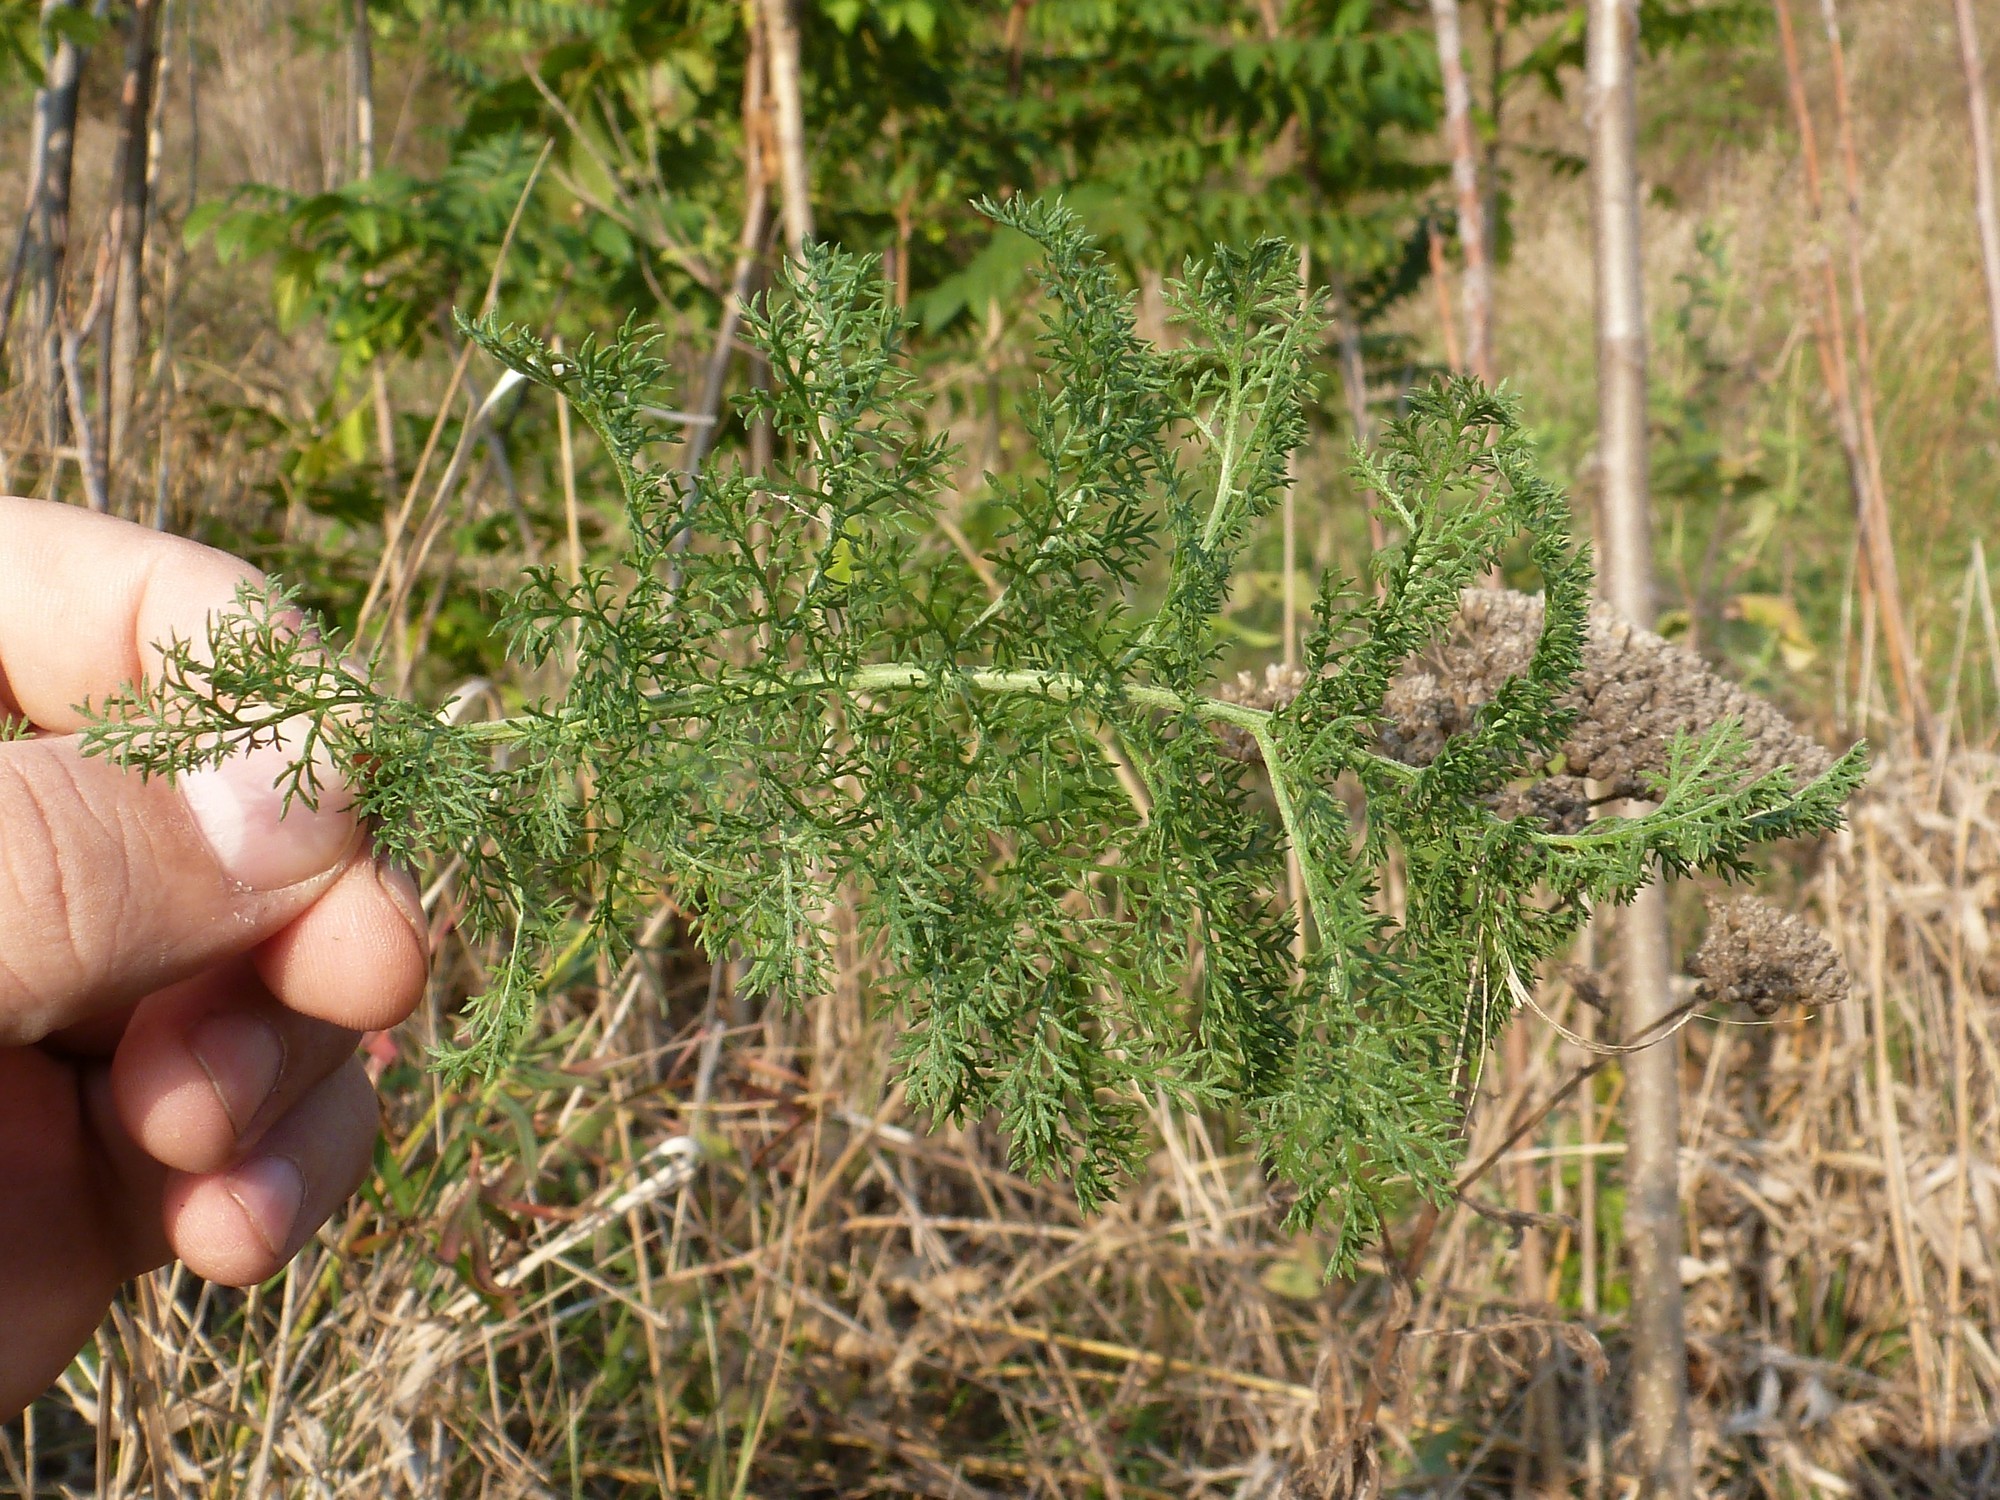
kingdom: Plantae
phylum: Tracheophyta
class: Magnoliopsida
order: Asterales
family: Asteraceae
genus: Achillea
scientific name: Achillea nobilis
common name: Noble yarrow
